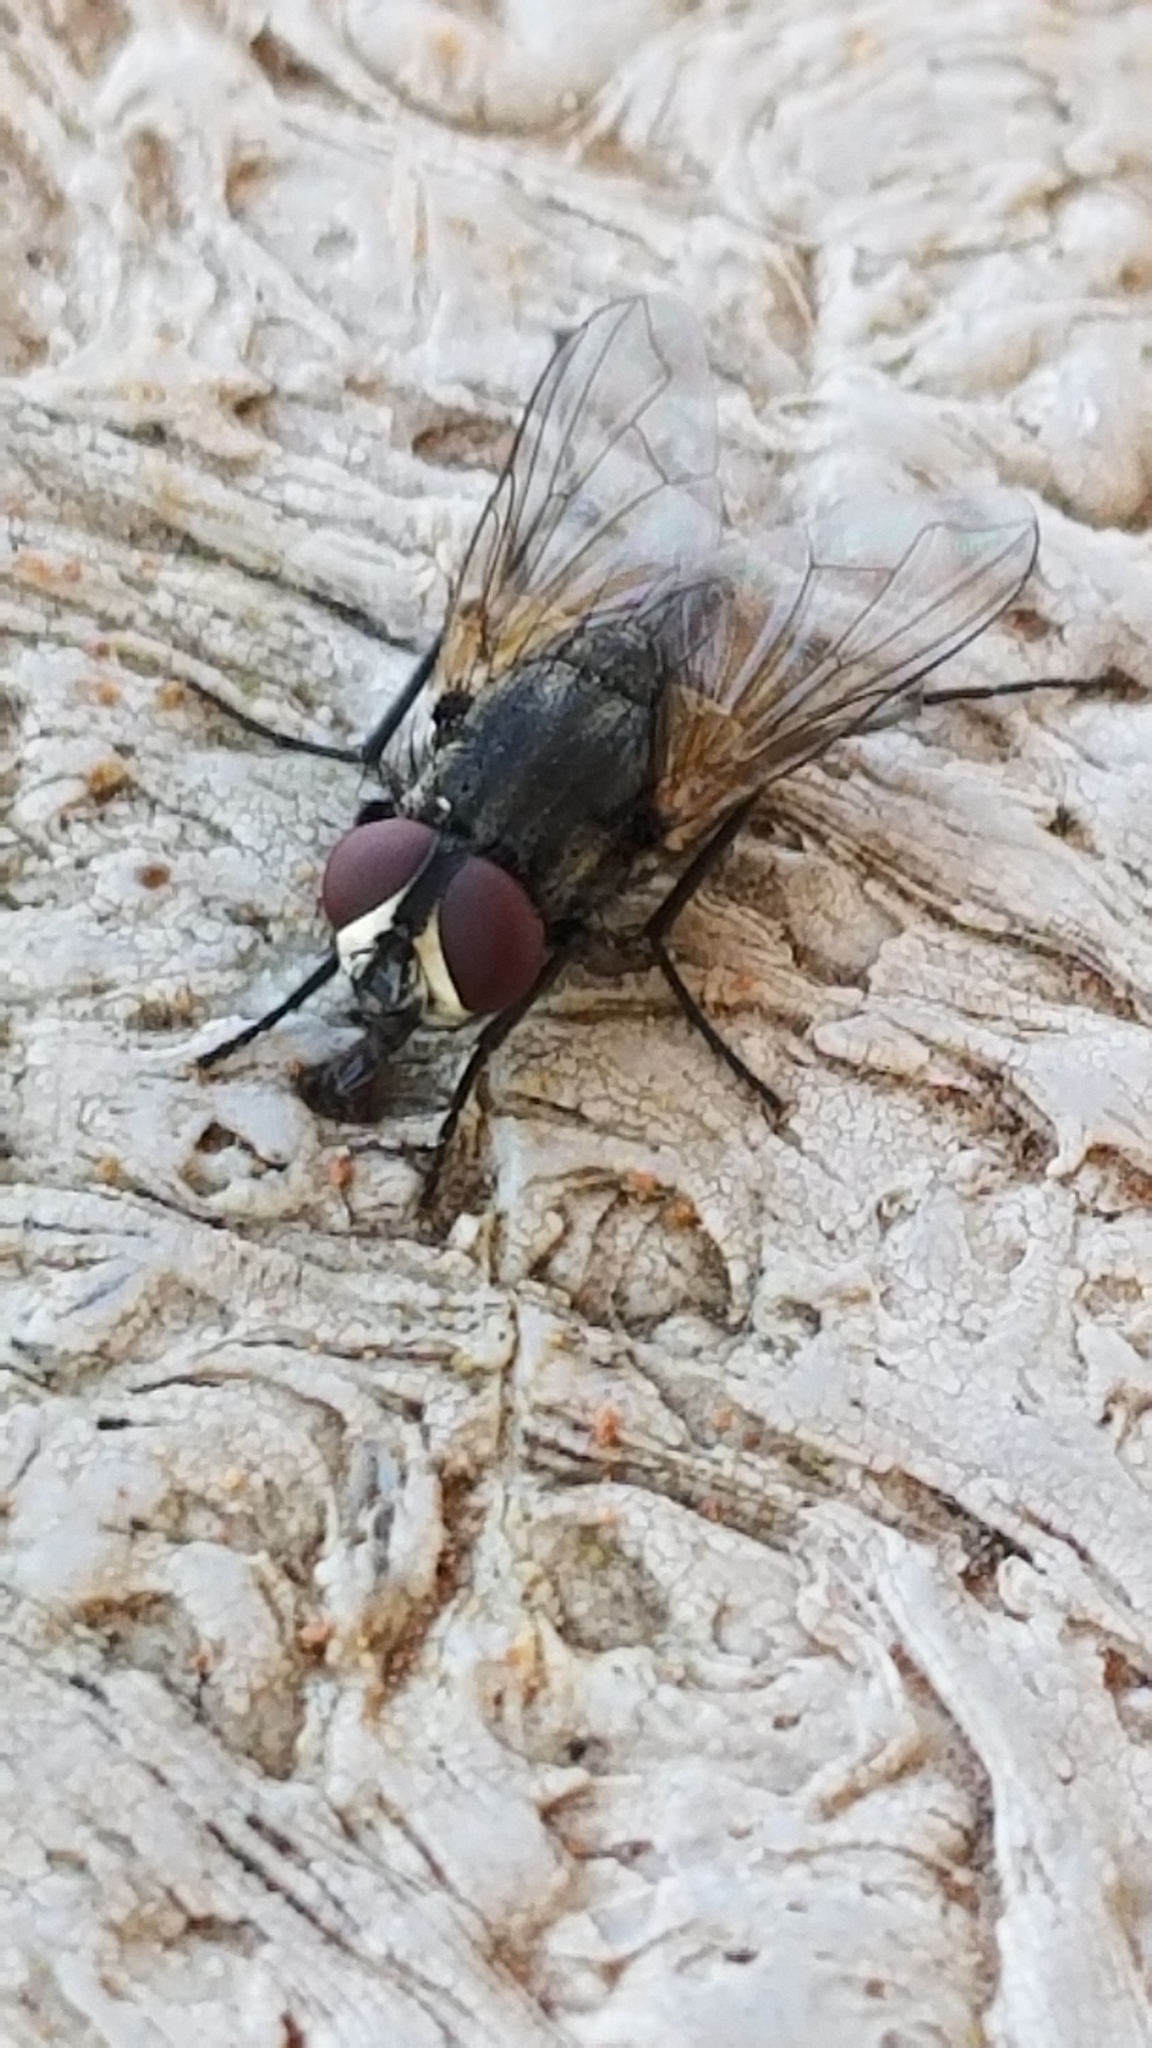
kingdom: Animalia
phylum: Arthropoda
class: Insecta
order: Diptera
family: Muscidae
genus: Musca
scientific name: Musca domestica
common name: House fly
